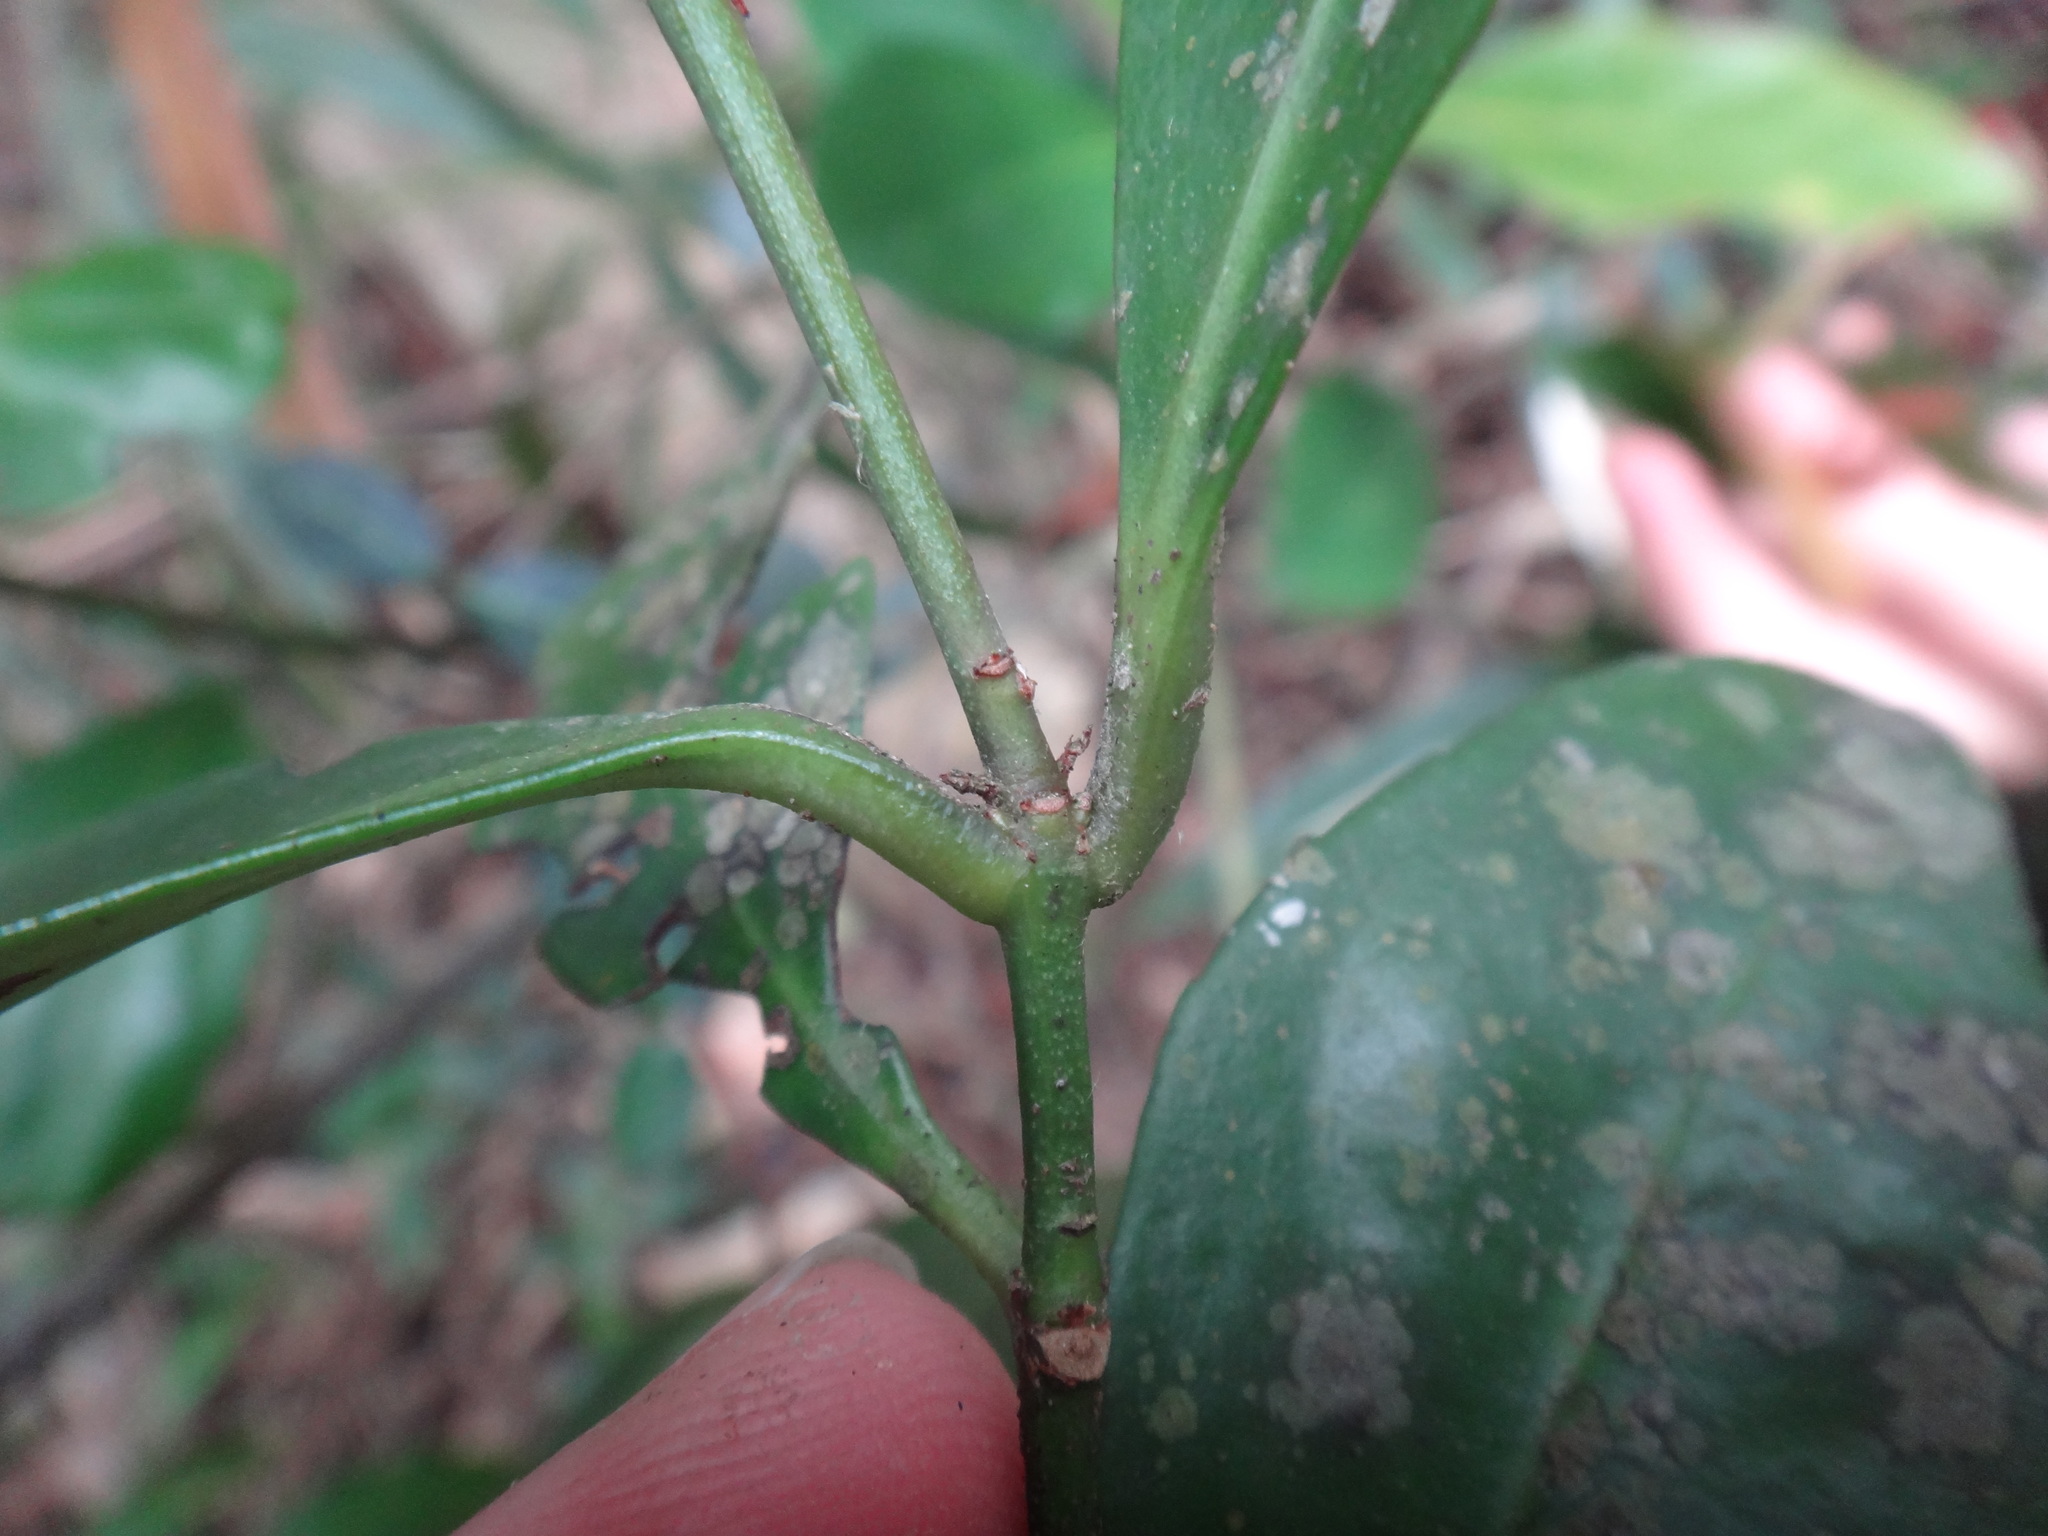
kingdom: Plantae
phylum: Tracheophyta
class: Magnoliopsida
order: Celastrales
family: Celastraceae
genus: Euonymus
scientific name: Euonymus tashiroi
